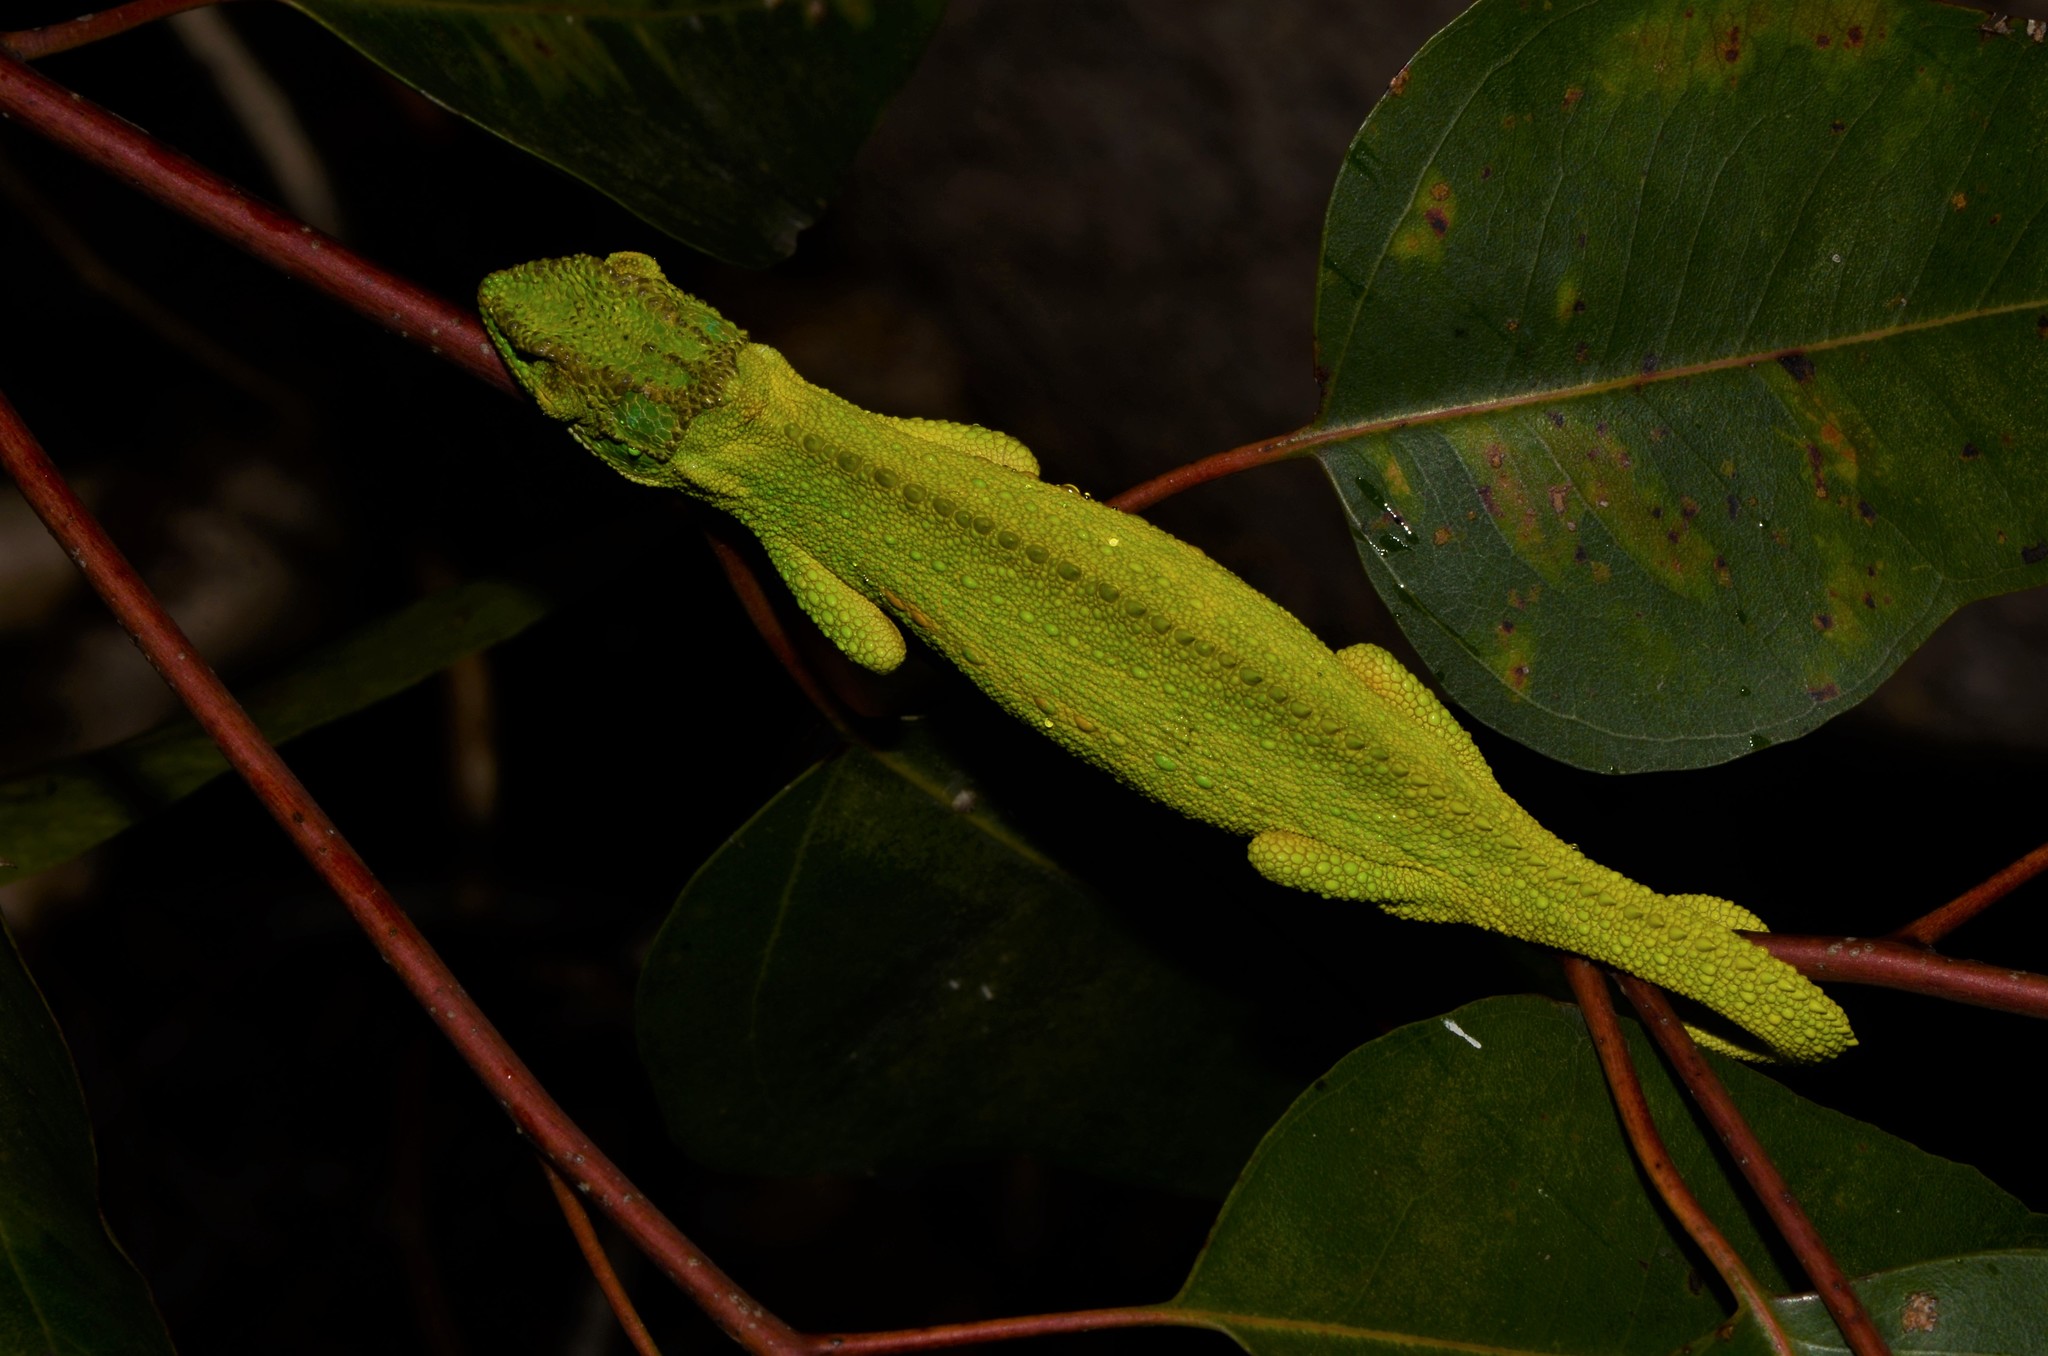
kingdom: Animalia
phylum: Chordata
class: Squamata
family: Chamaeleonidae
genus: Bradypodion
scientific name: Bradypodion pumilum
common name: Cape dwarf chameleon
